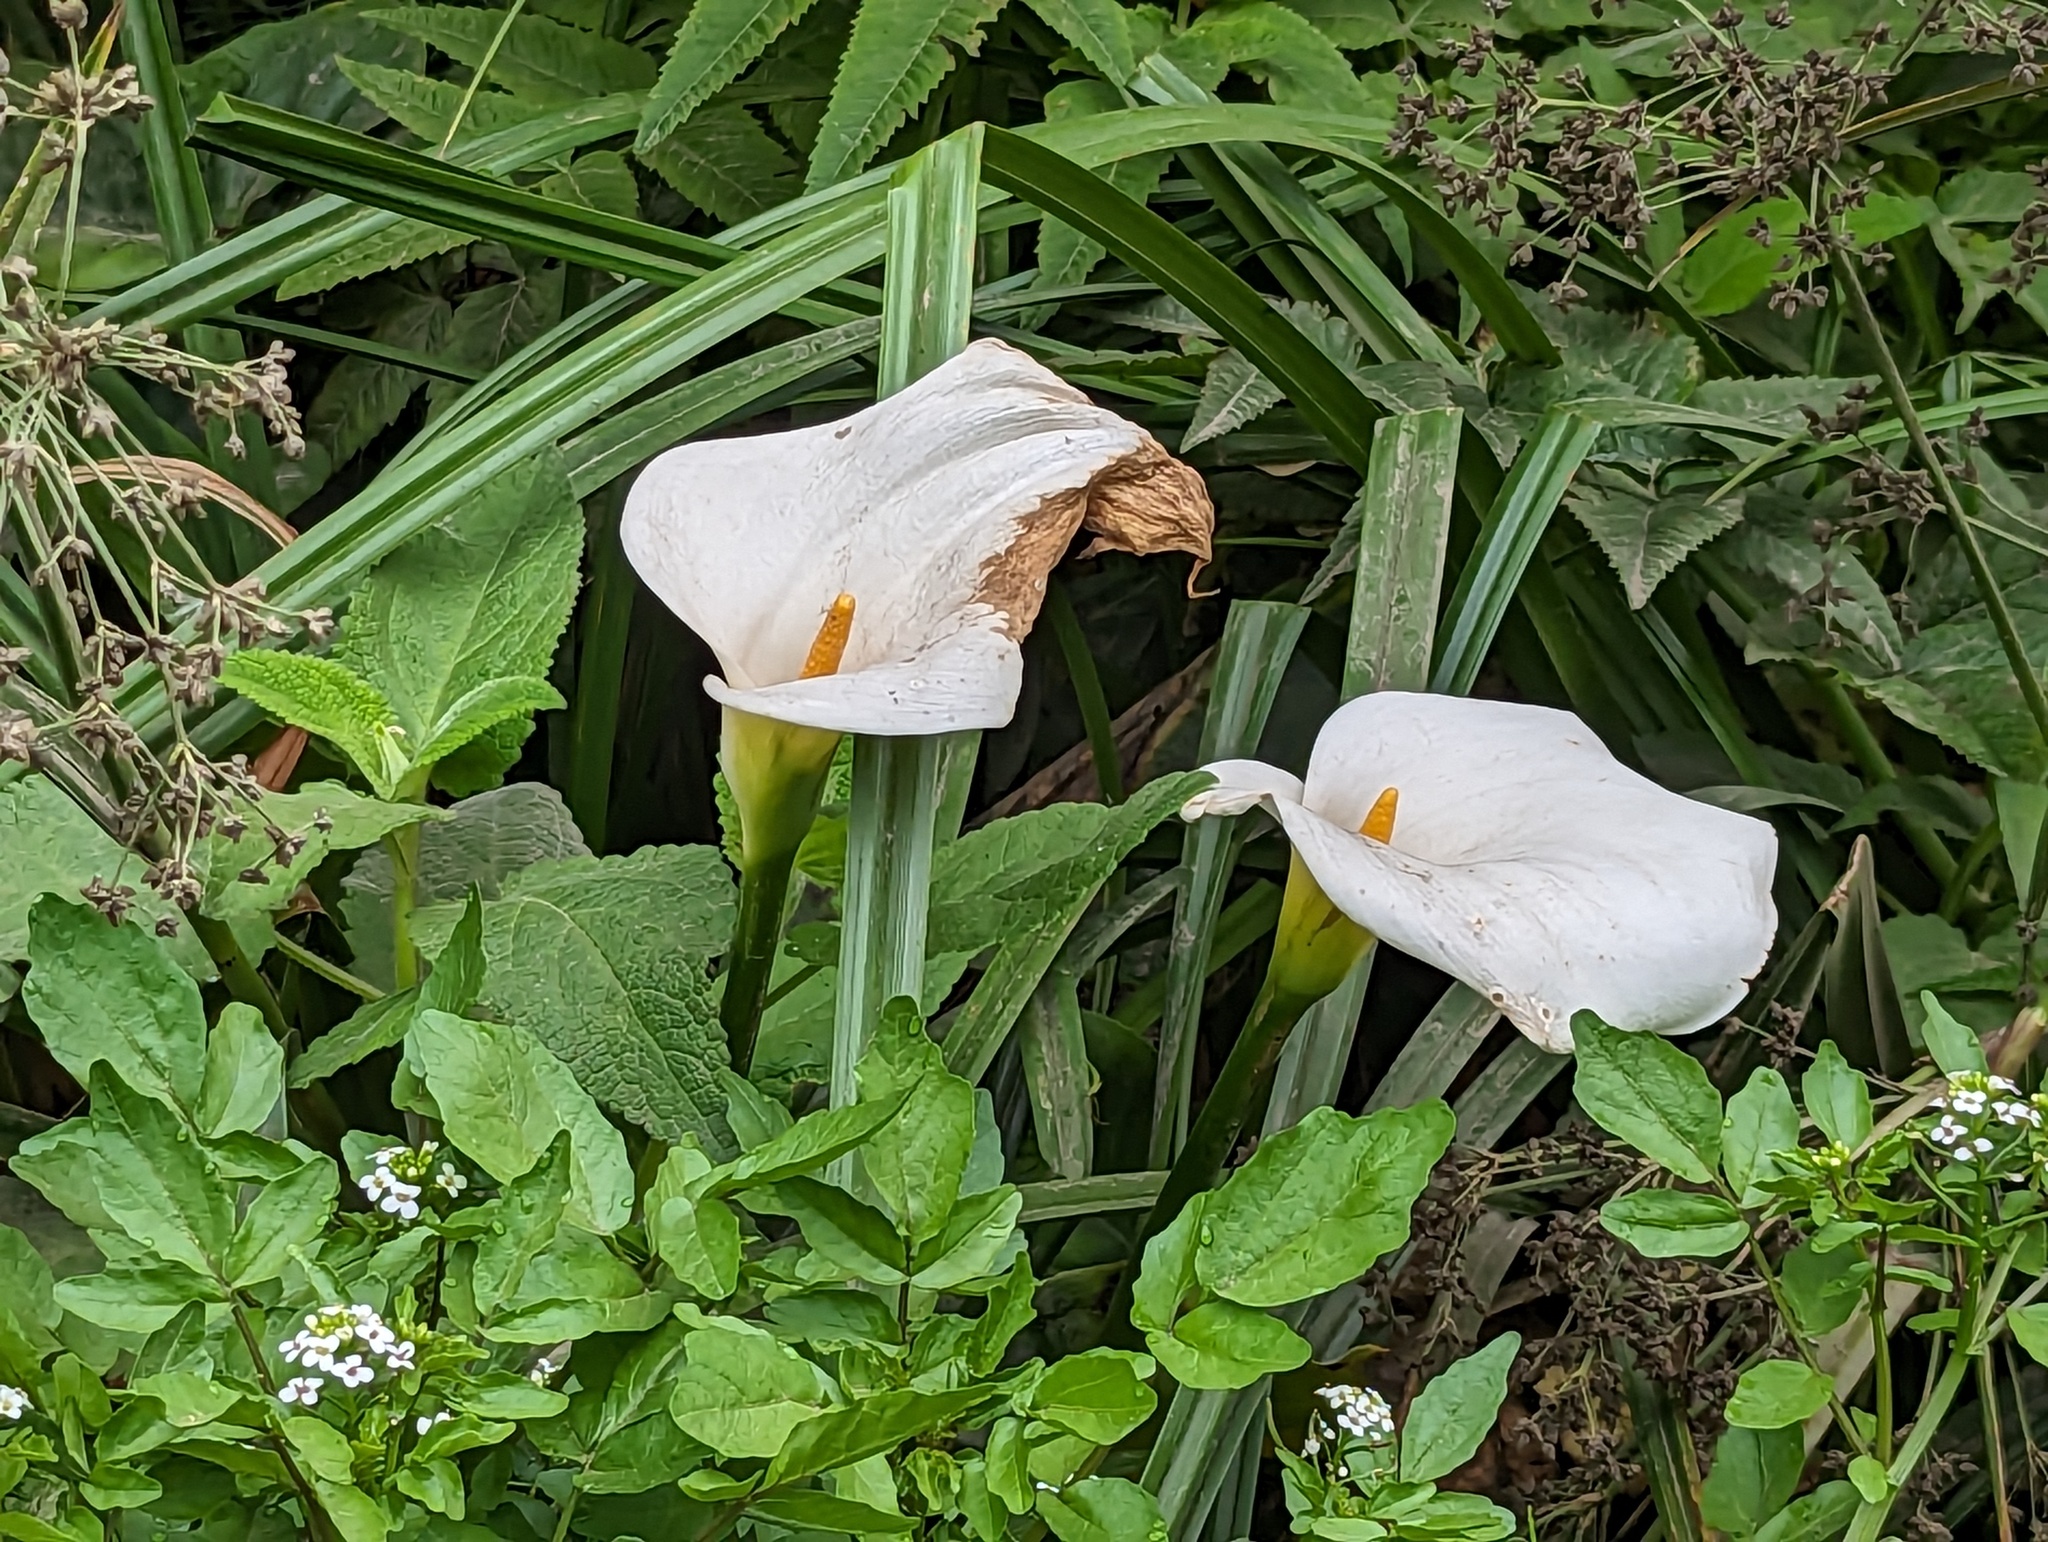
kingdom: Plantae
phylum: Tracheophyta
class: Liliopsida
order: Alismatales
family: Araceae
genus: Zantedeschia
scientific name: Zantedeschia aethiopica
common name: Altar-lily
